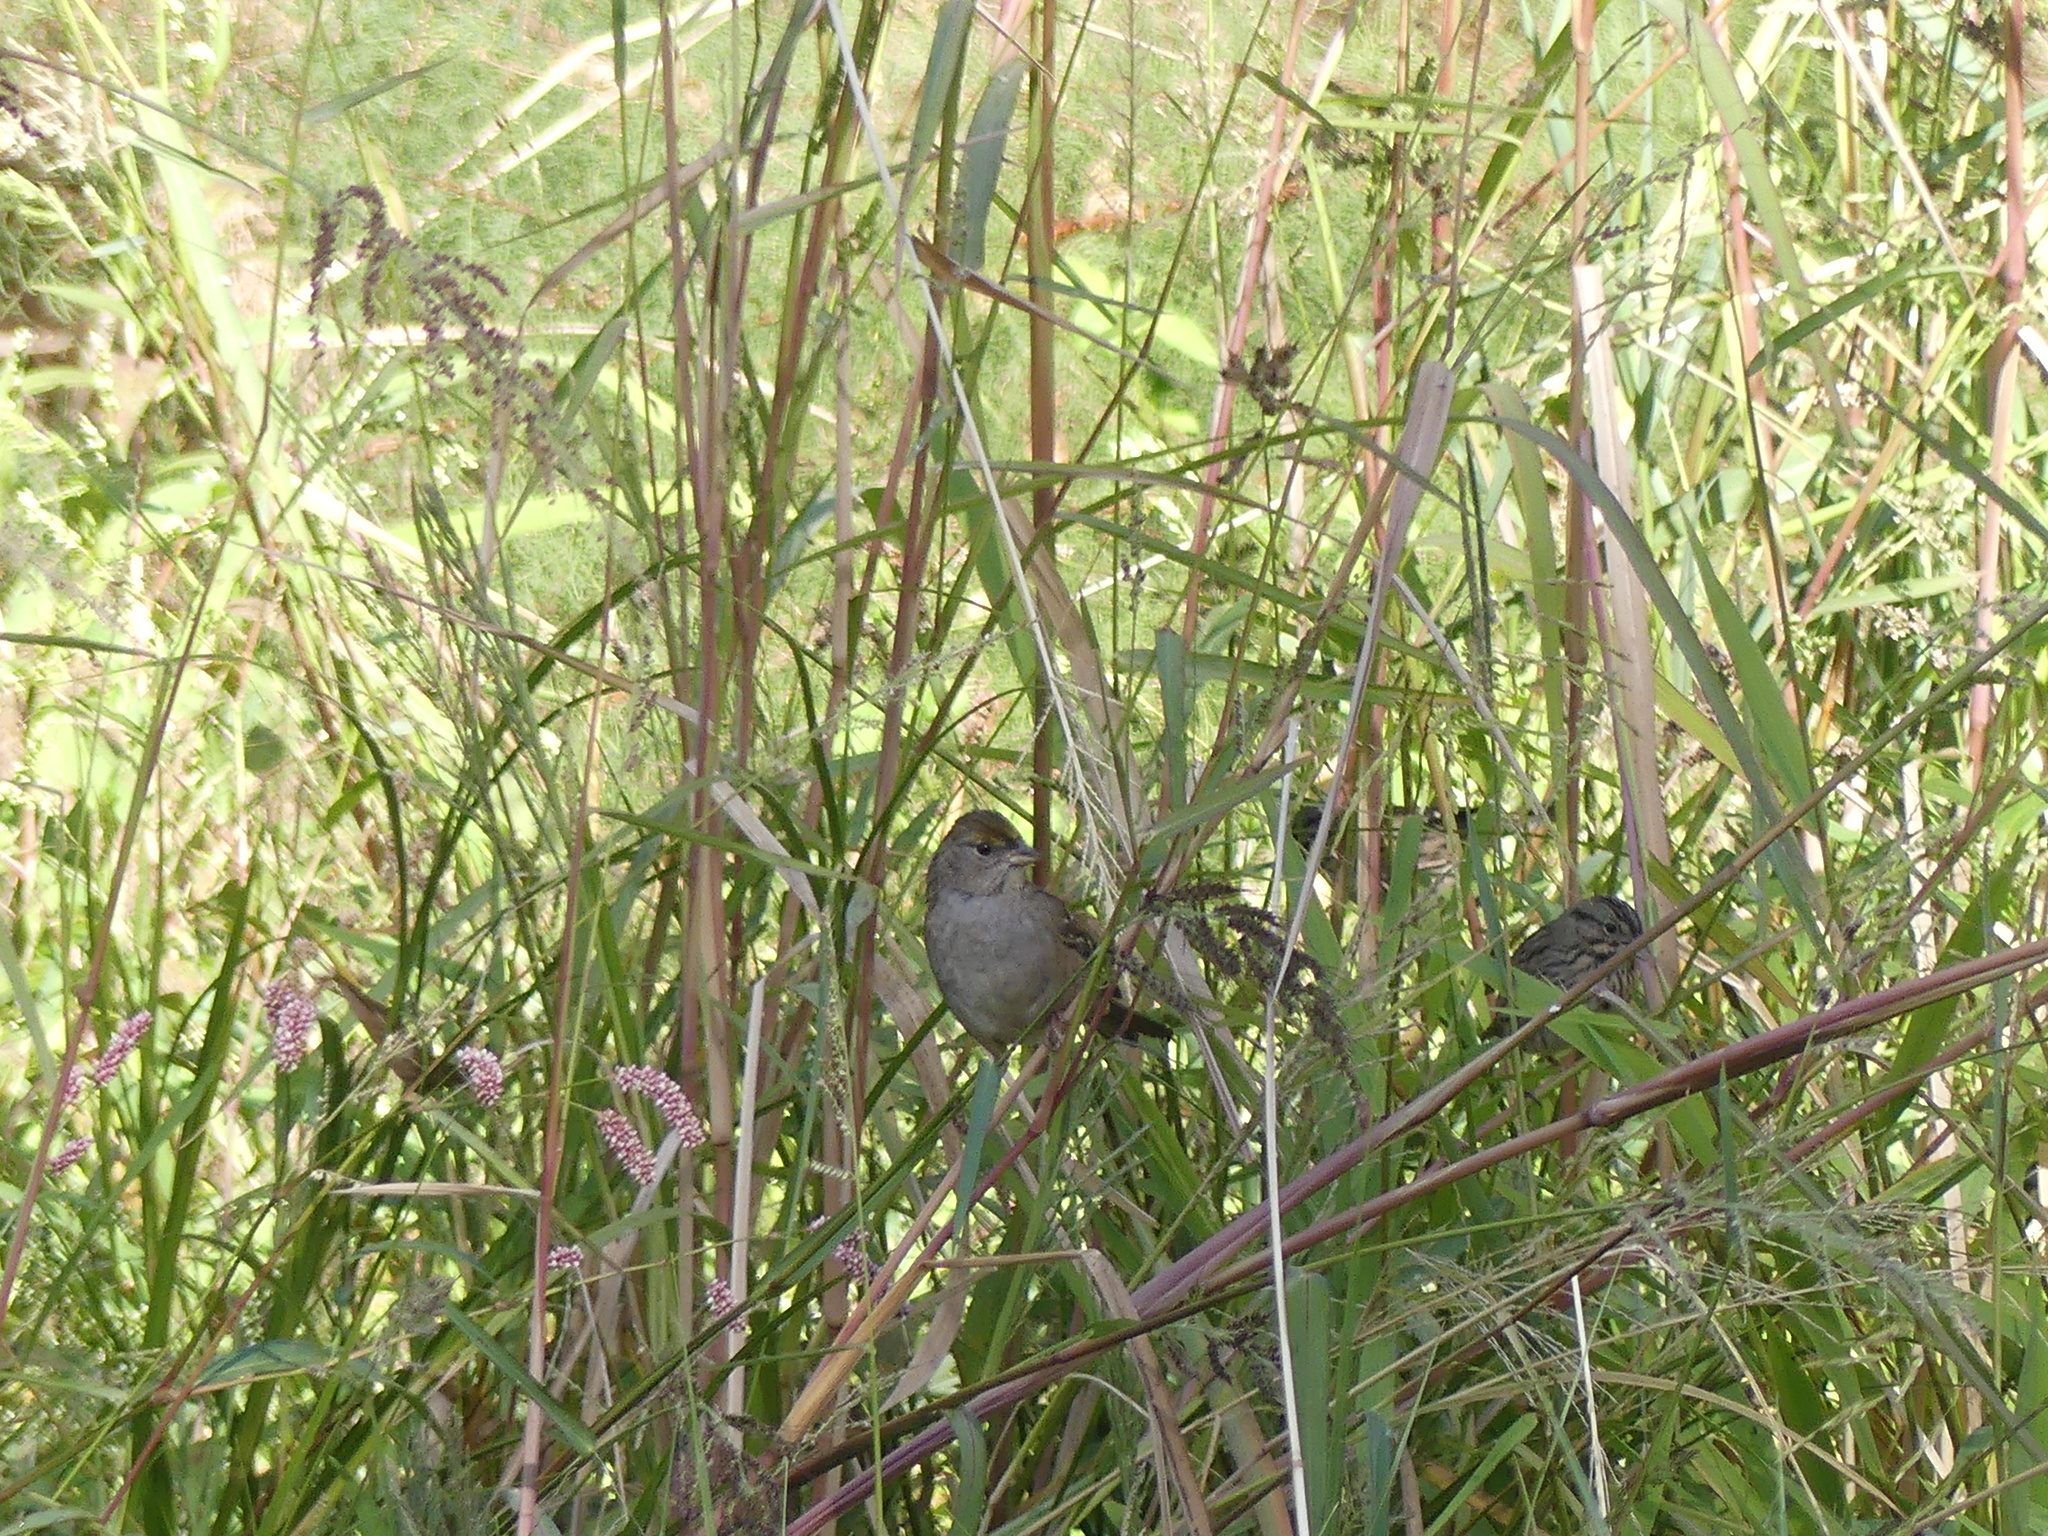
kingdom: Animalia
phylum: Chordata
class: Aves
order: Passeriformes
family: Passerellidae
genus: Zonotrichia
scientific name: Zonotrichia atricapilla
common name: Golden-crowned sparrow
